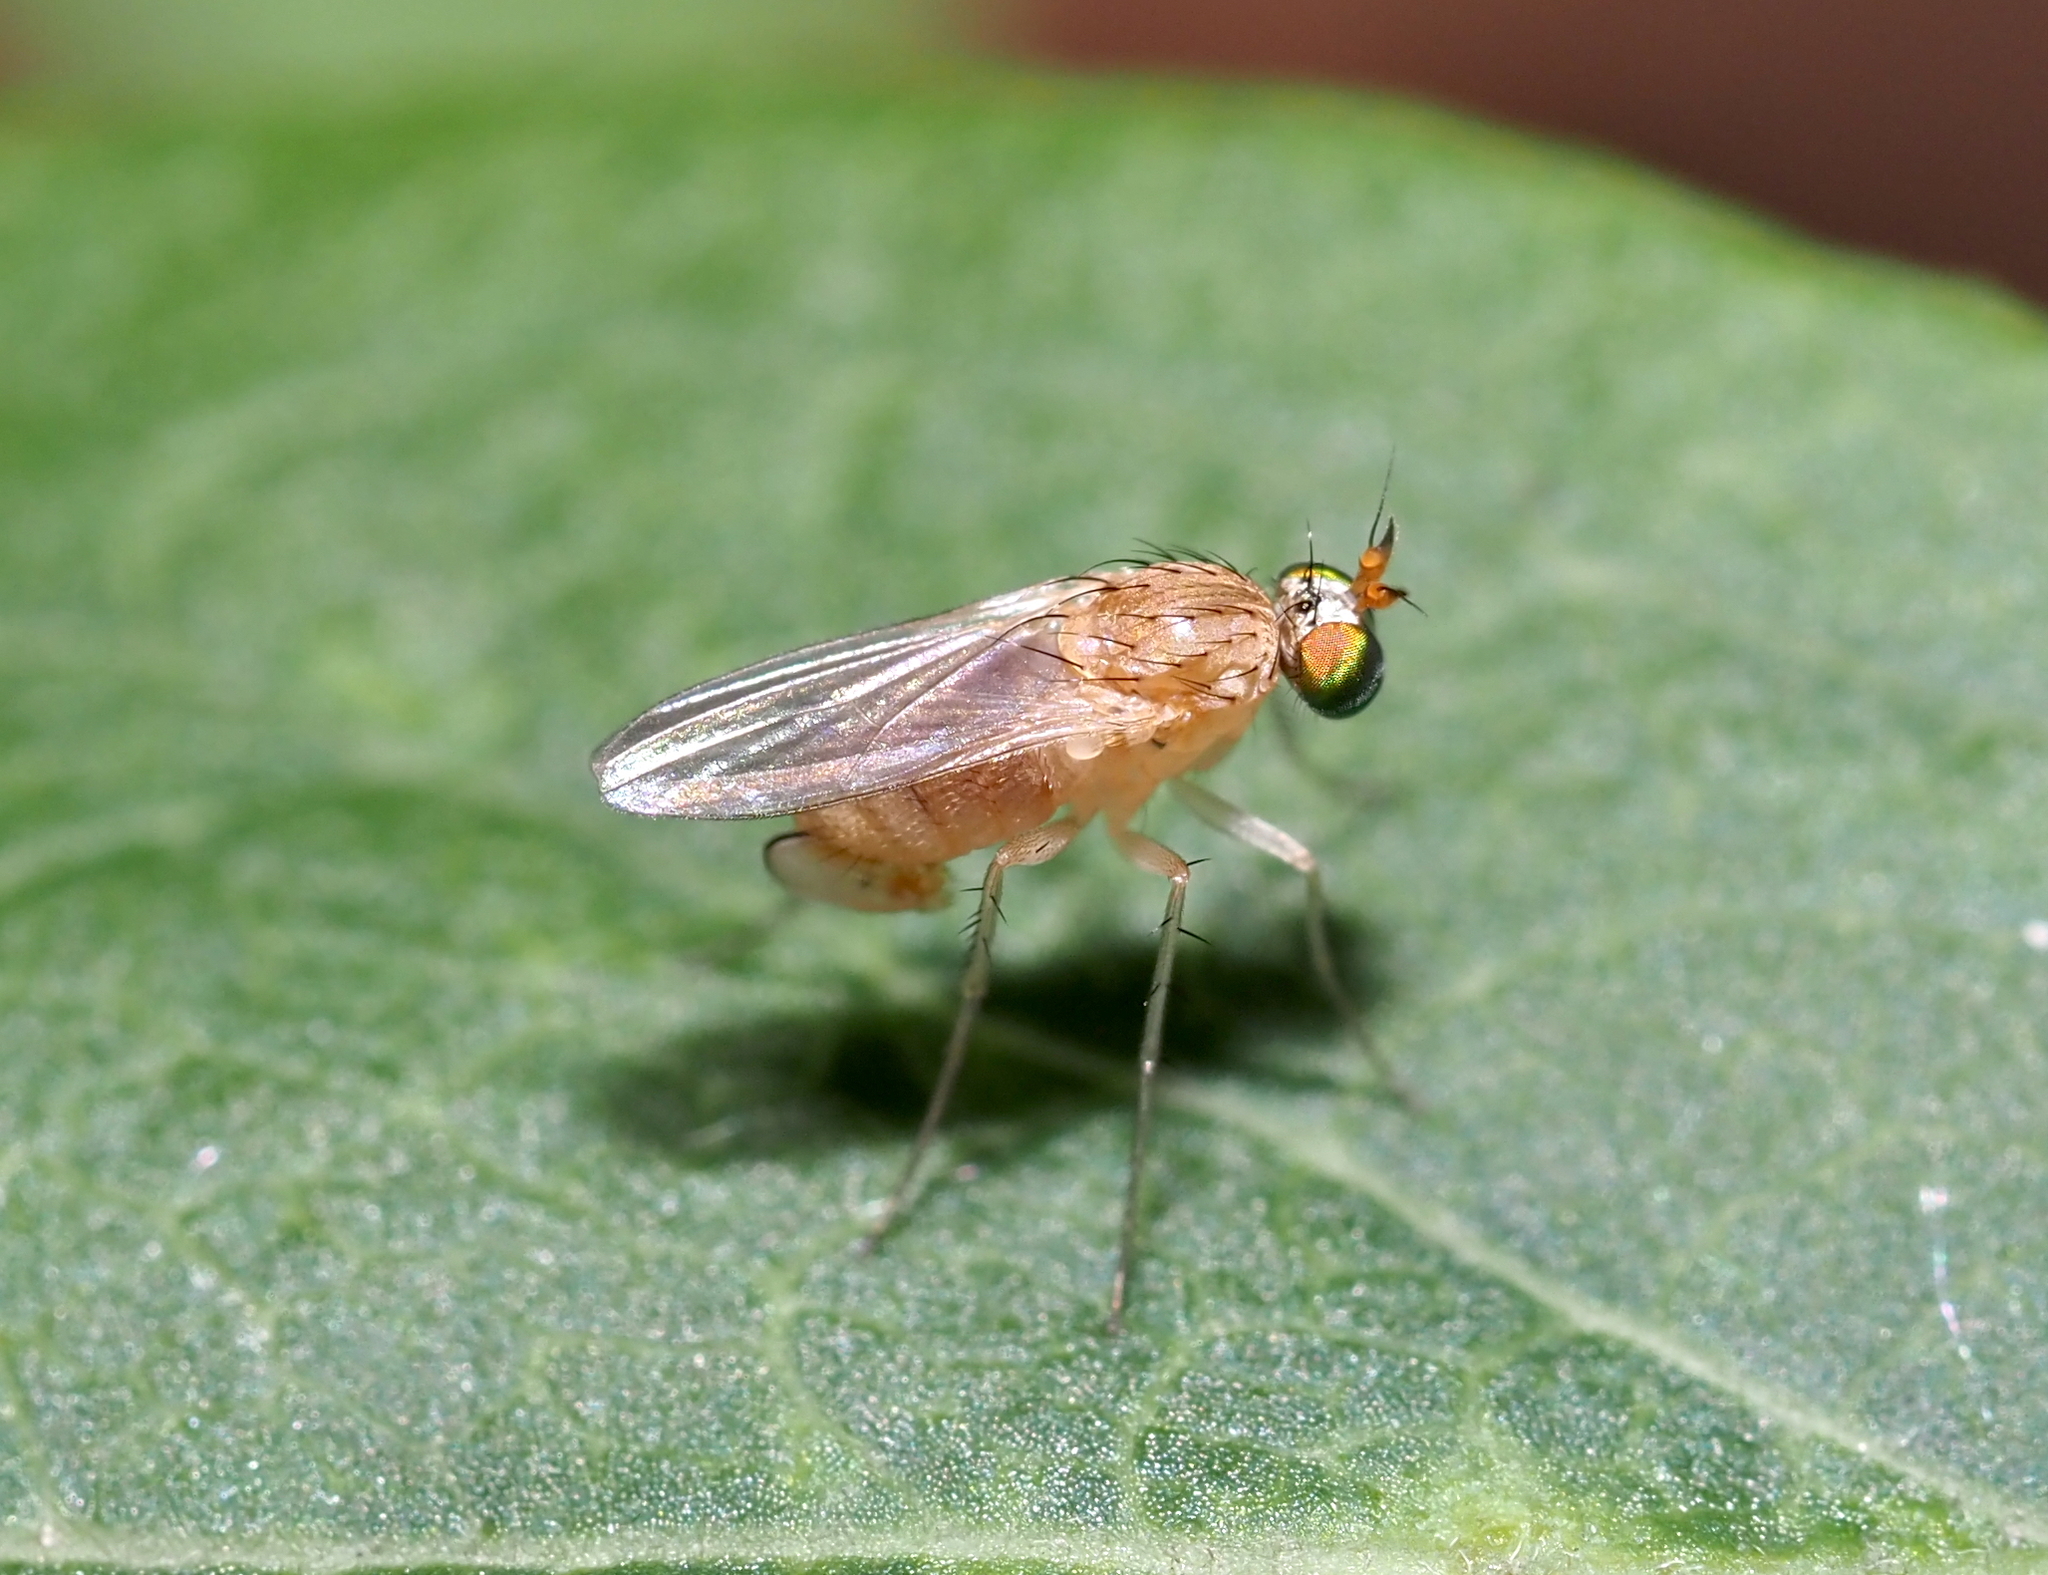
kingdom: Animalia
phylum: Arthropoda
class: Insecta
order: Diptera
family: Dolichopodidae
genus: Gymnopternus
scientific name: Gymnopternus flavus
